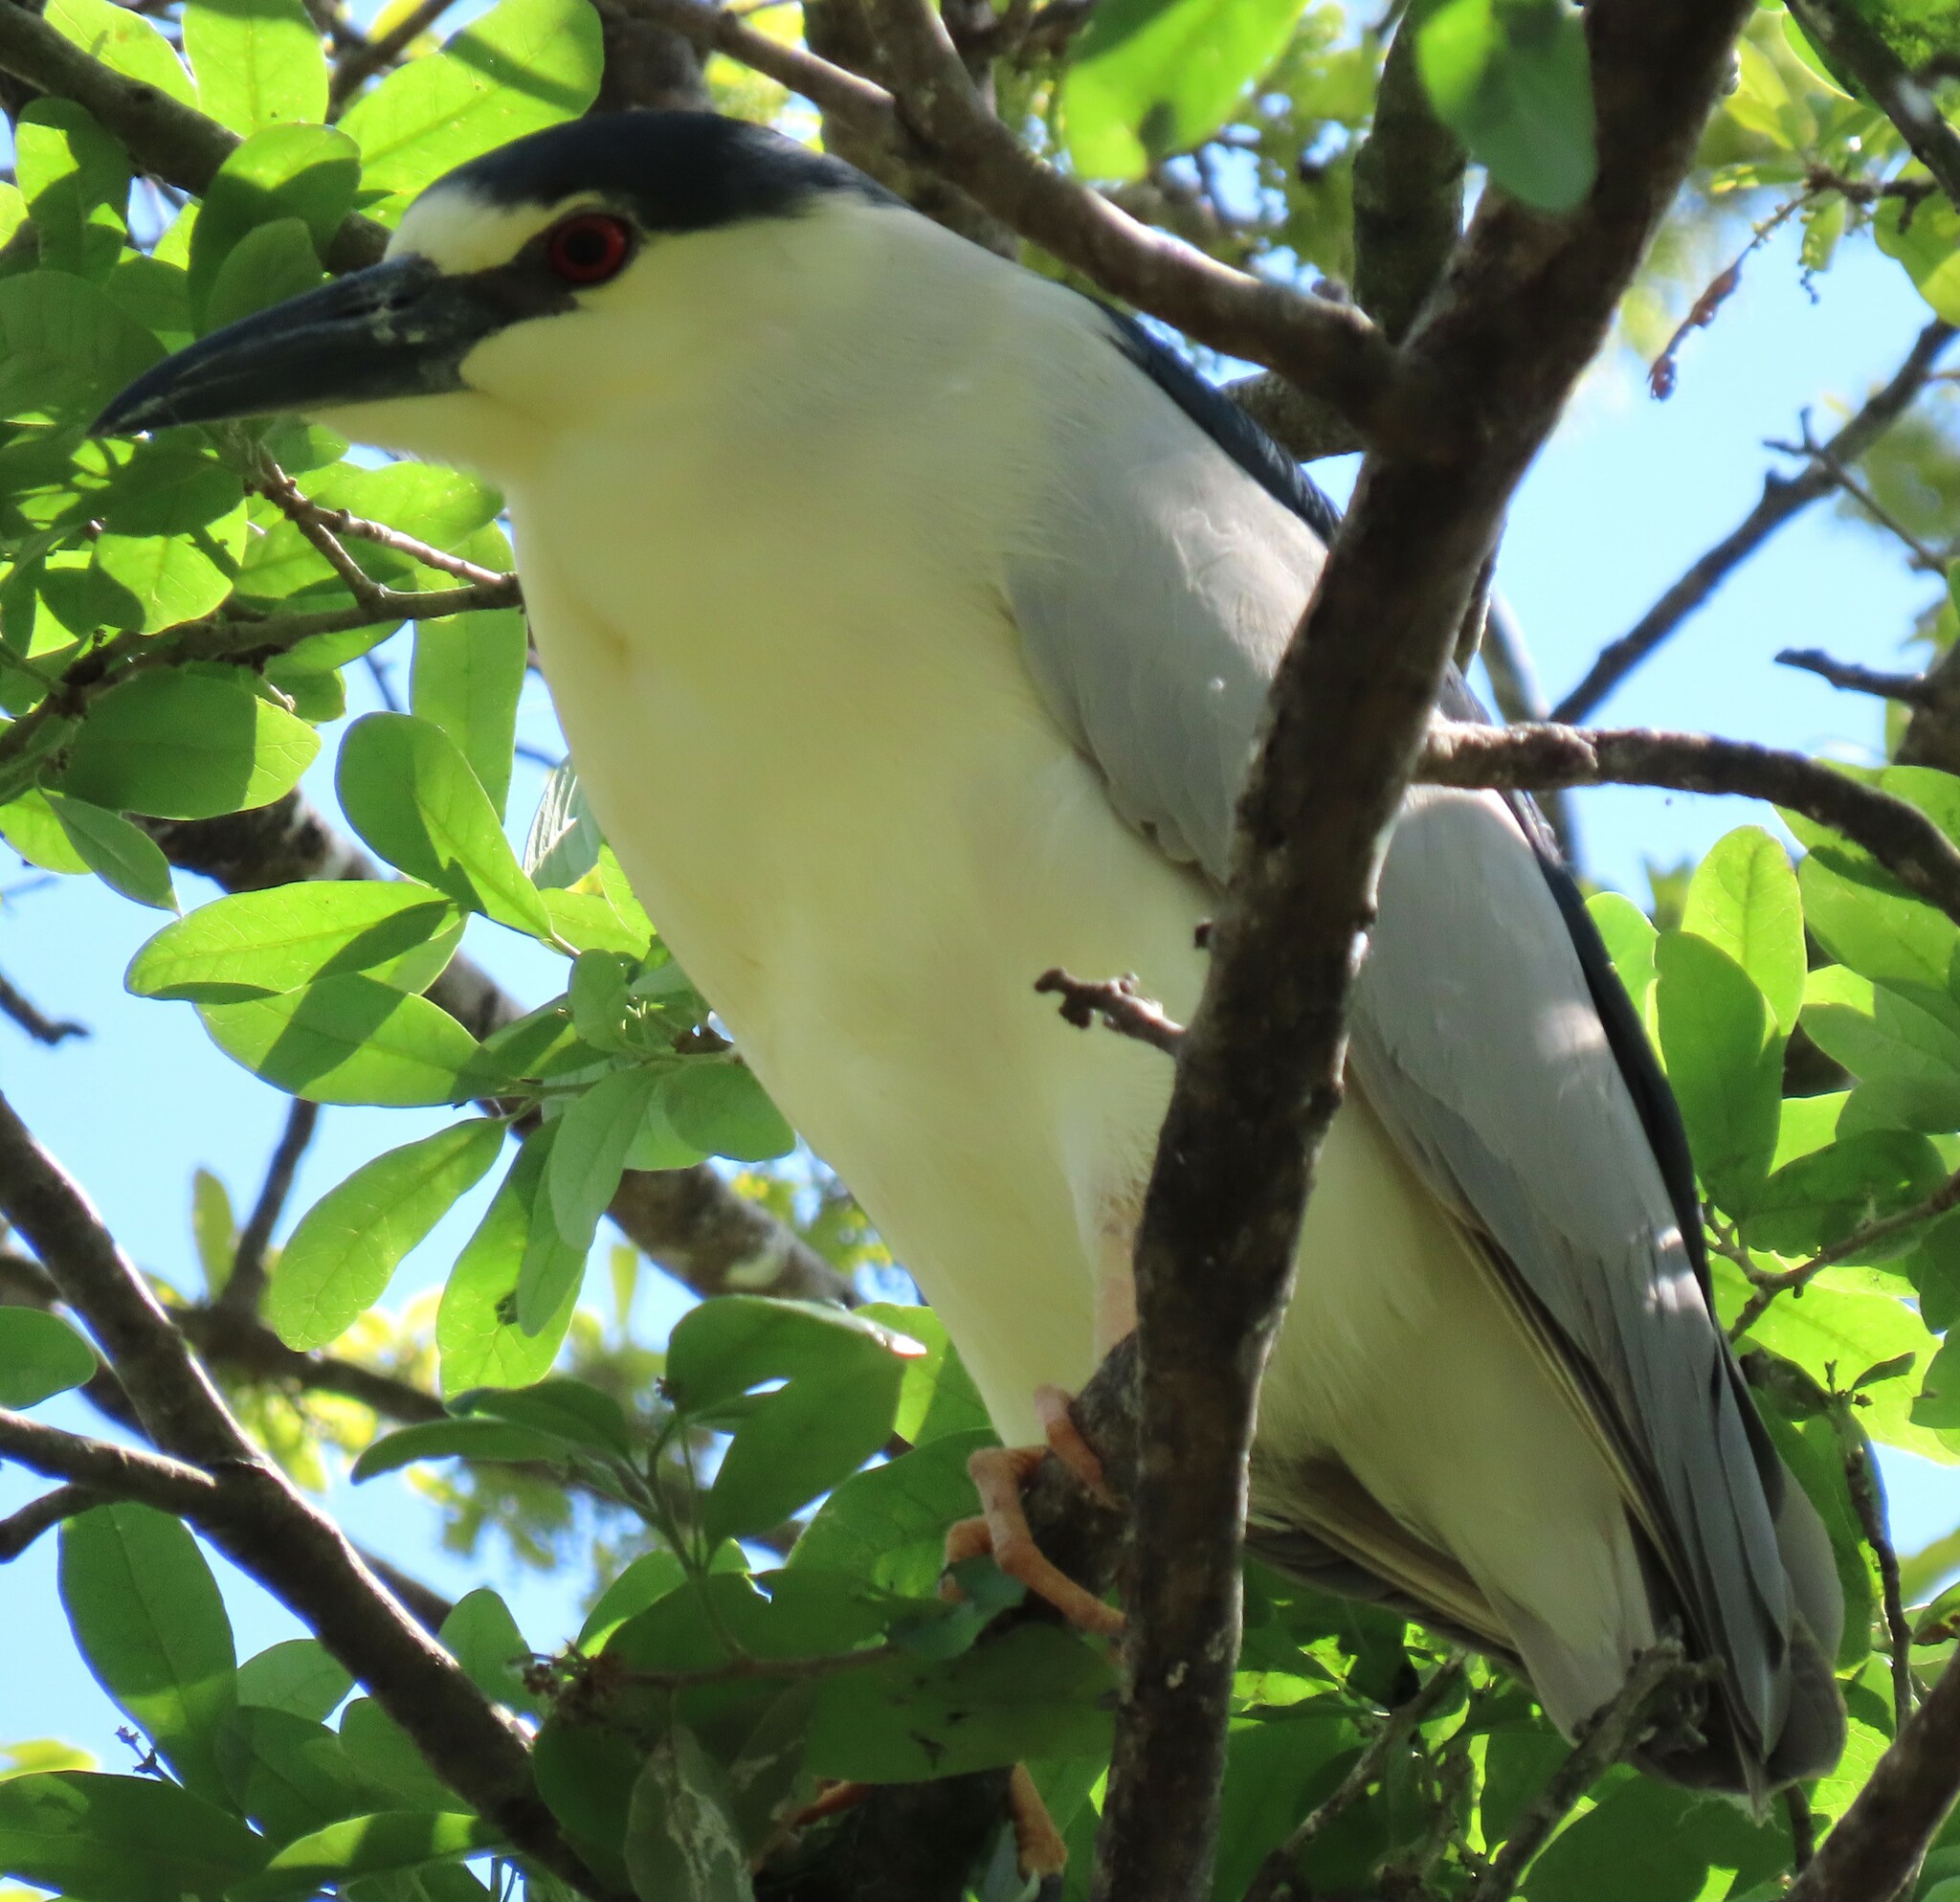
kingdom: Animalia
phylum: Chordata
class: Aves
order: Pelecaniformes
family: Ardeidae
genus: Nycticorax
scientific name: Nycticorax nycticorax
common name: Black-crowned night heron
